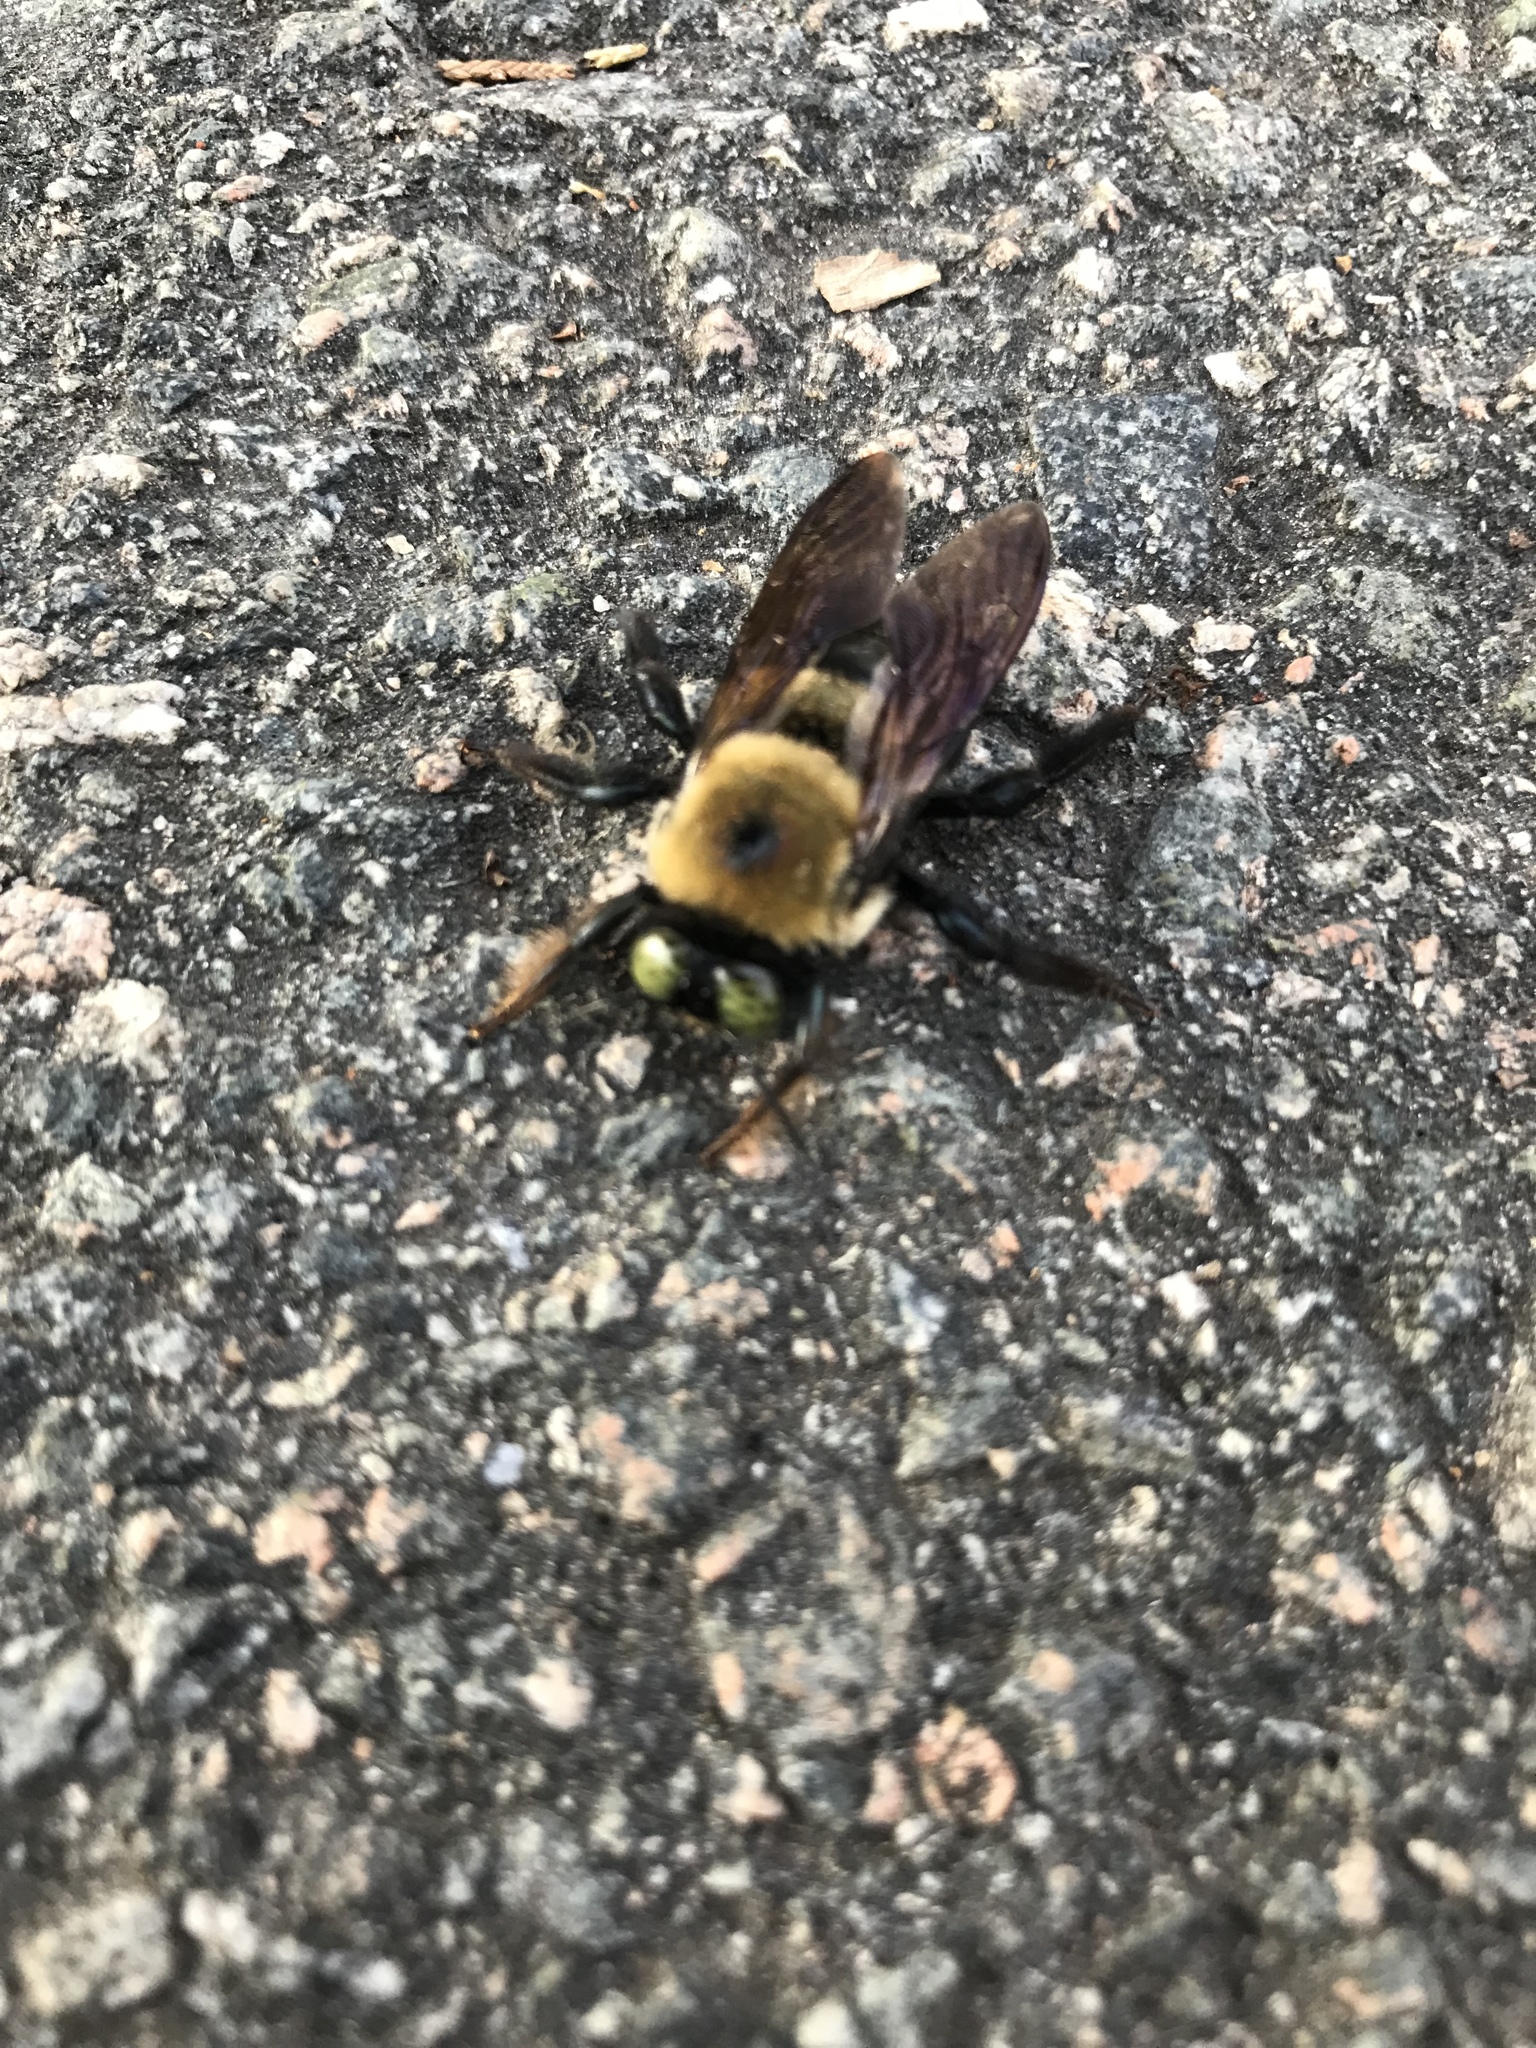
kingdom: Animalia
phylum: Arthropoda
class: Insecta
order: Hymenoptera
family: Apidae
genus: Xylocopa
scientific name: Xylocopa virginica
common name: Carpenter bee
